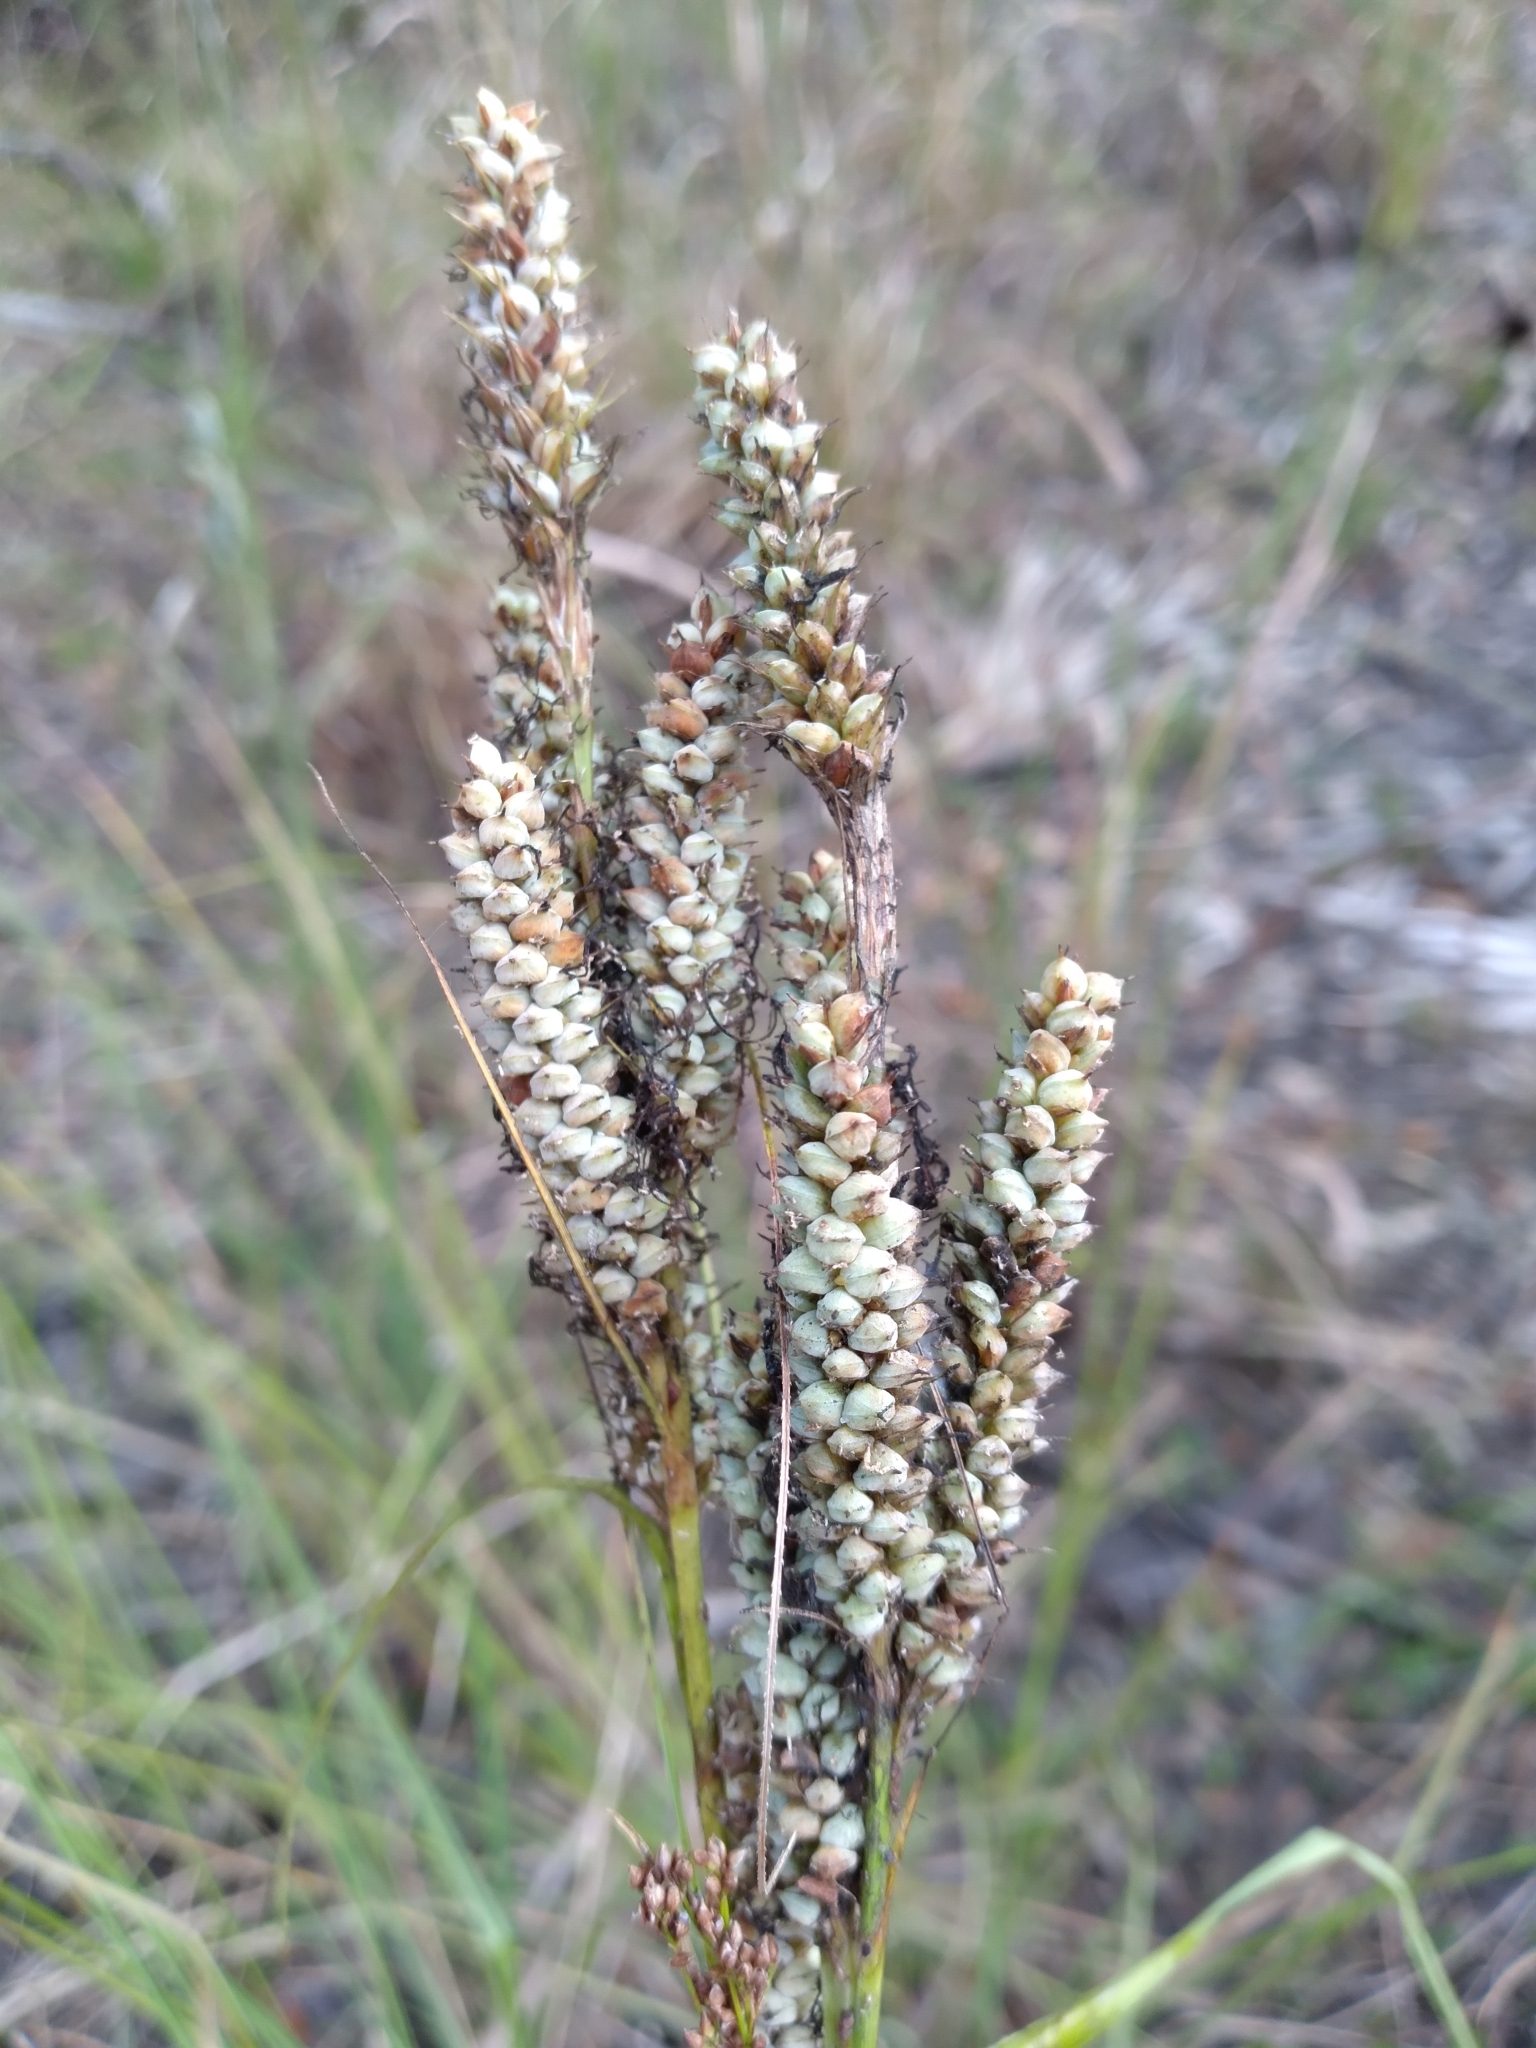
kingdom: Plantae
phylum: Tracheophyta
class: Liliopsida
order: Poales
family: Cyperaceae
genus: Carex
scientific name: Carex verrucosa
